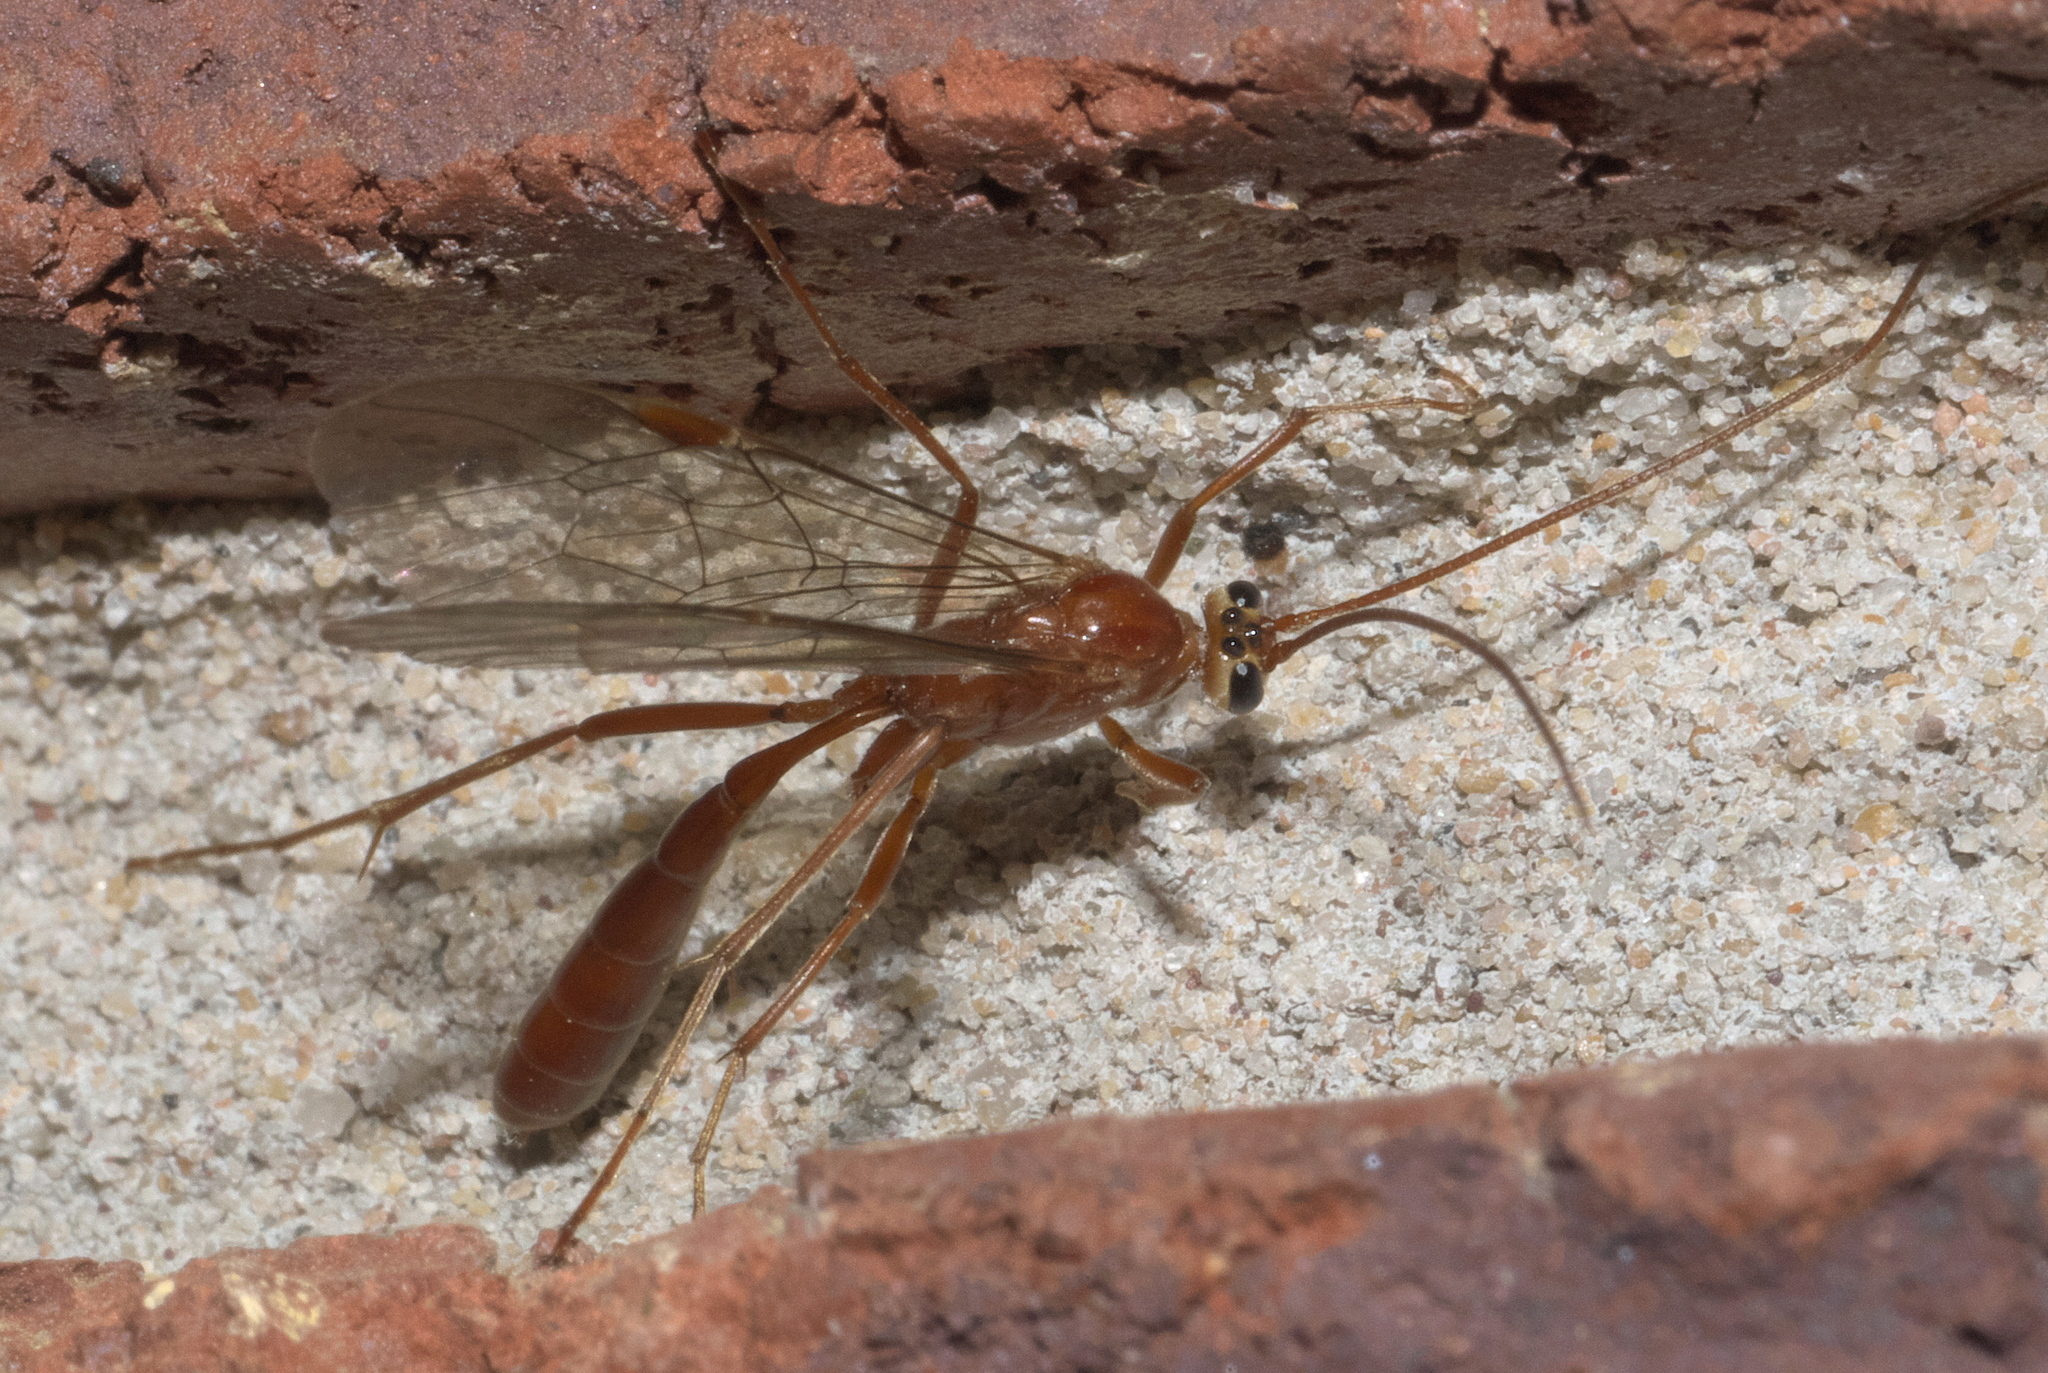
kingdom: Animalia
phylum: Arthropoda
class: Insecta
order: Hymenoptera
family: Ichneumonidae
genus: Ophion
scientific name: Ophion
